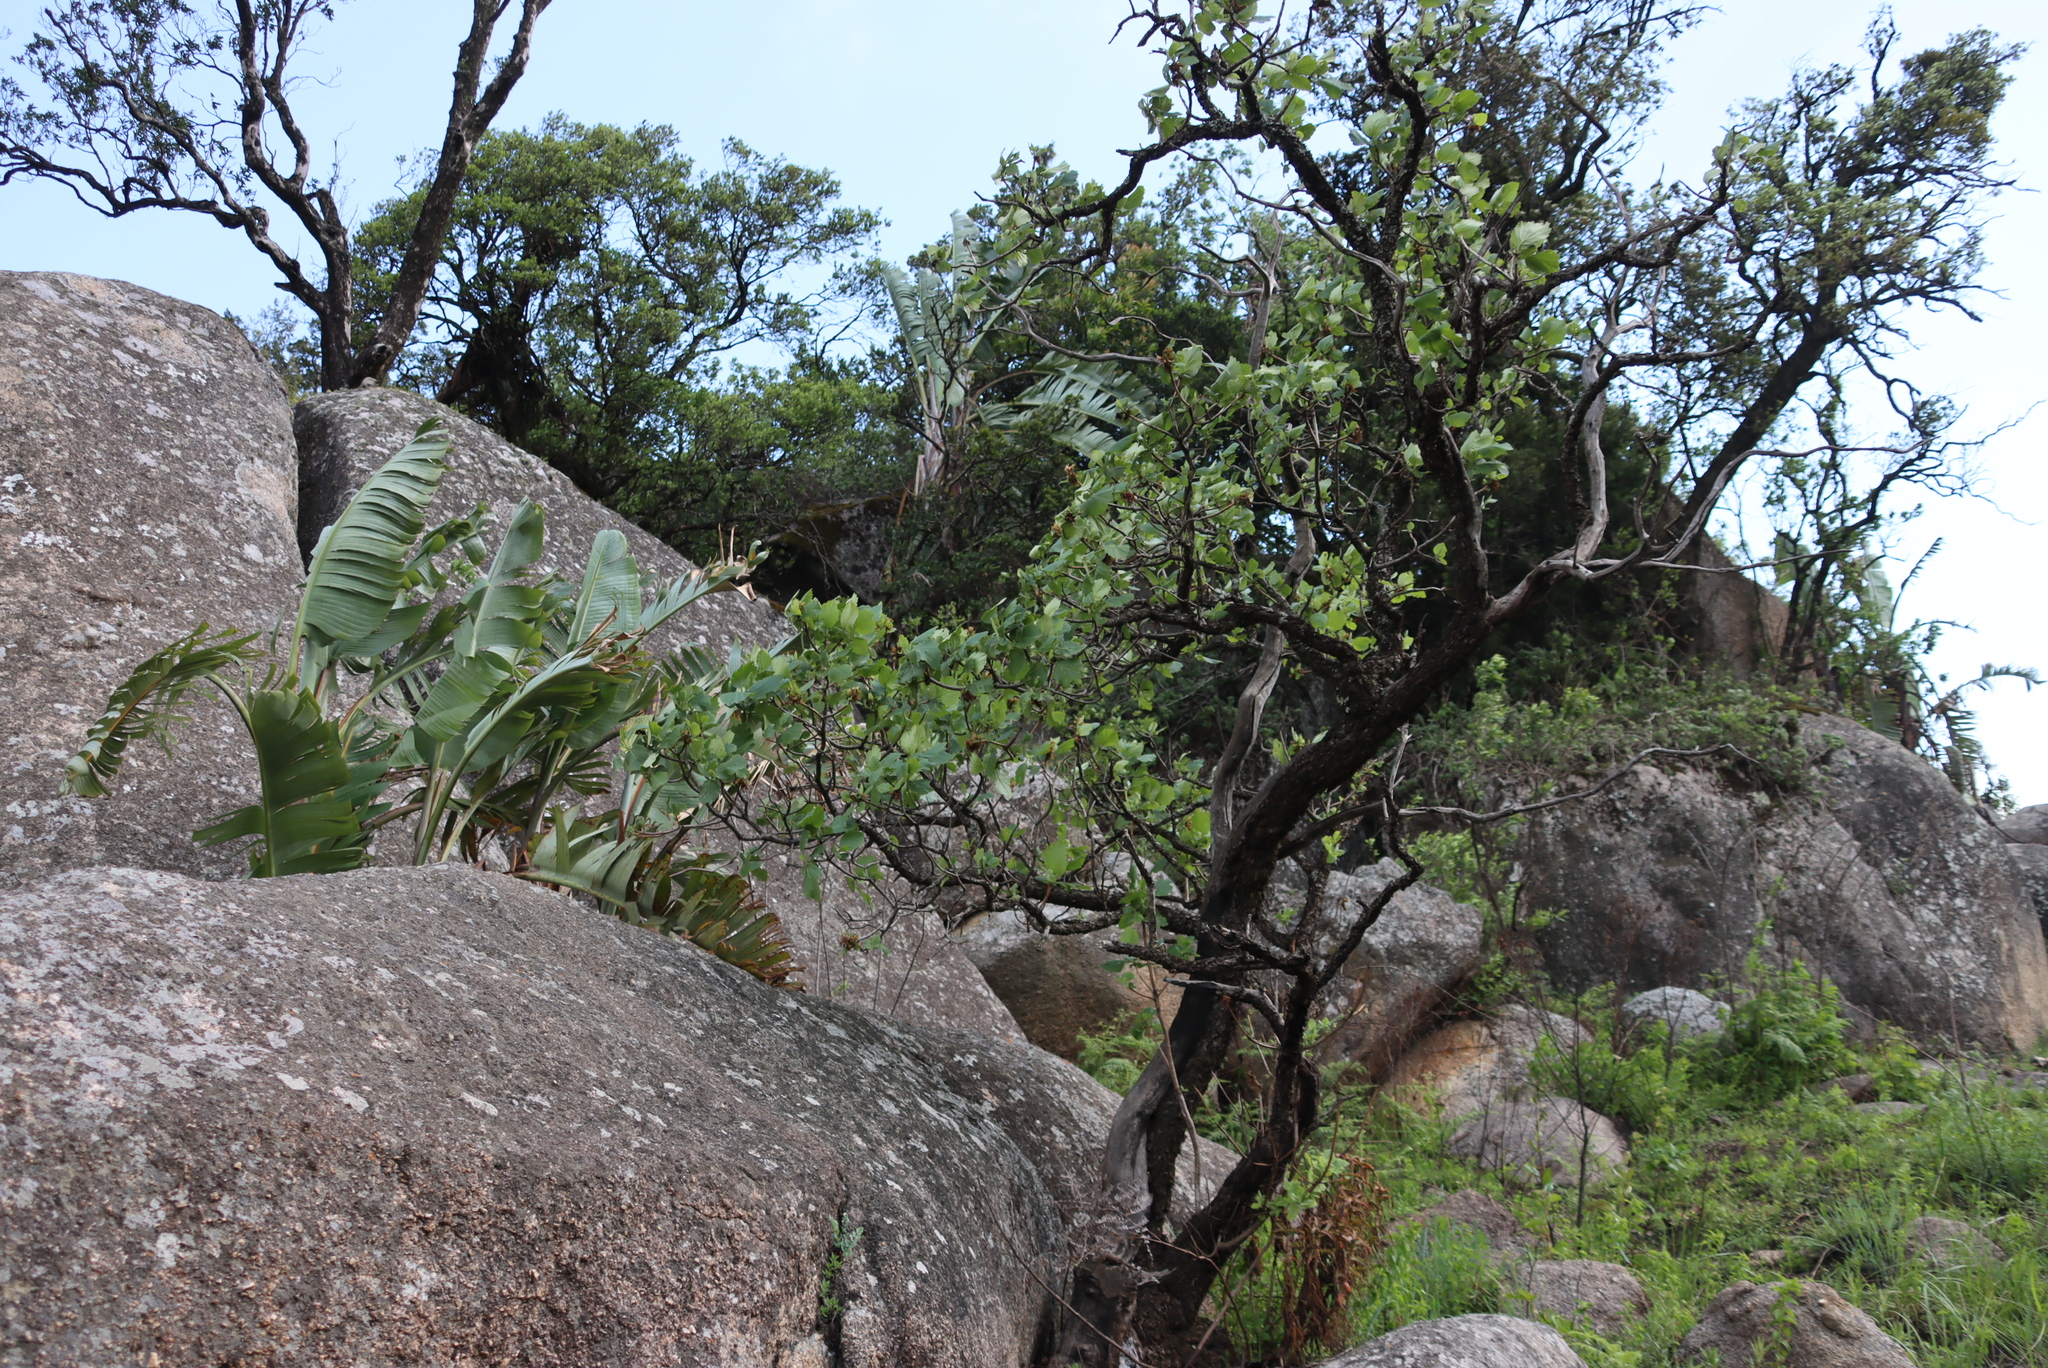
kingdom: Plantae
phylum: Tracheophyta
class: Liliopsida
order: Zingiberales
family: Strelitziaceae
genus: Strelitzia
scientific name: Strelitzia caudata
